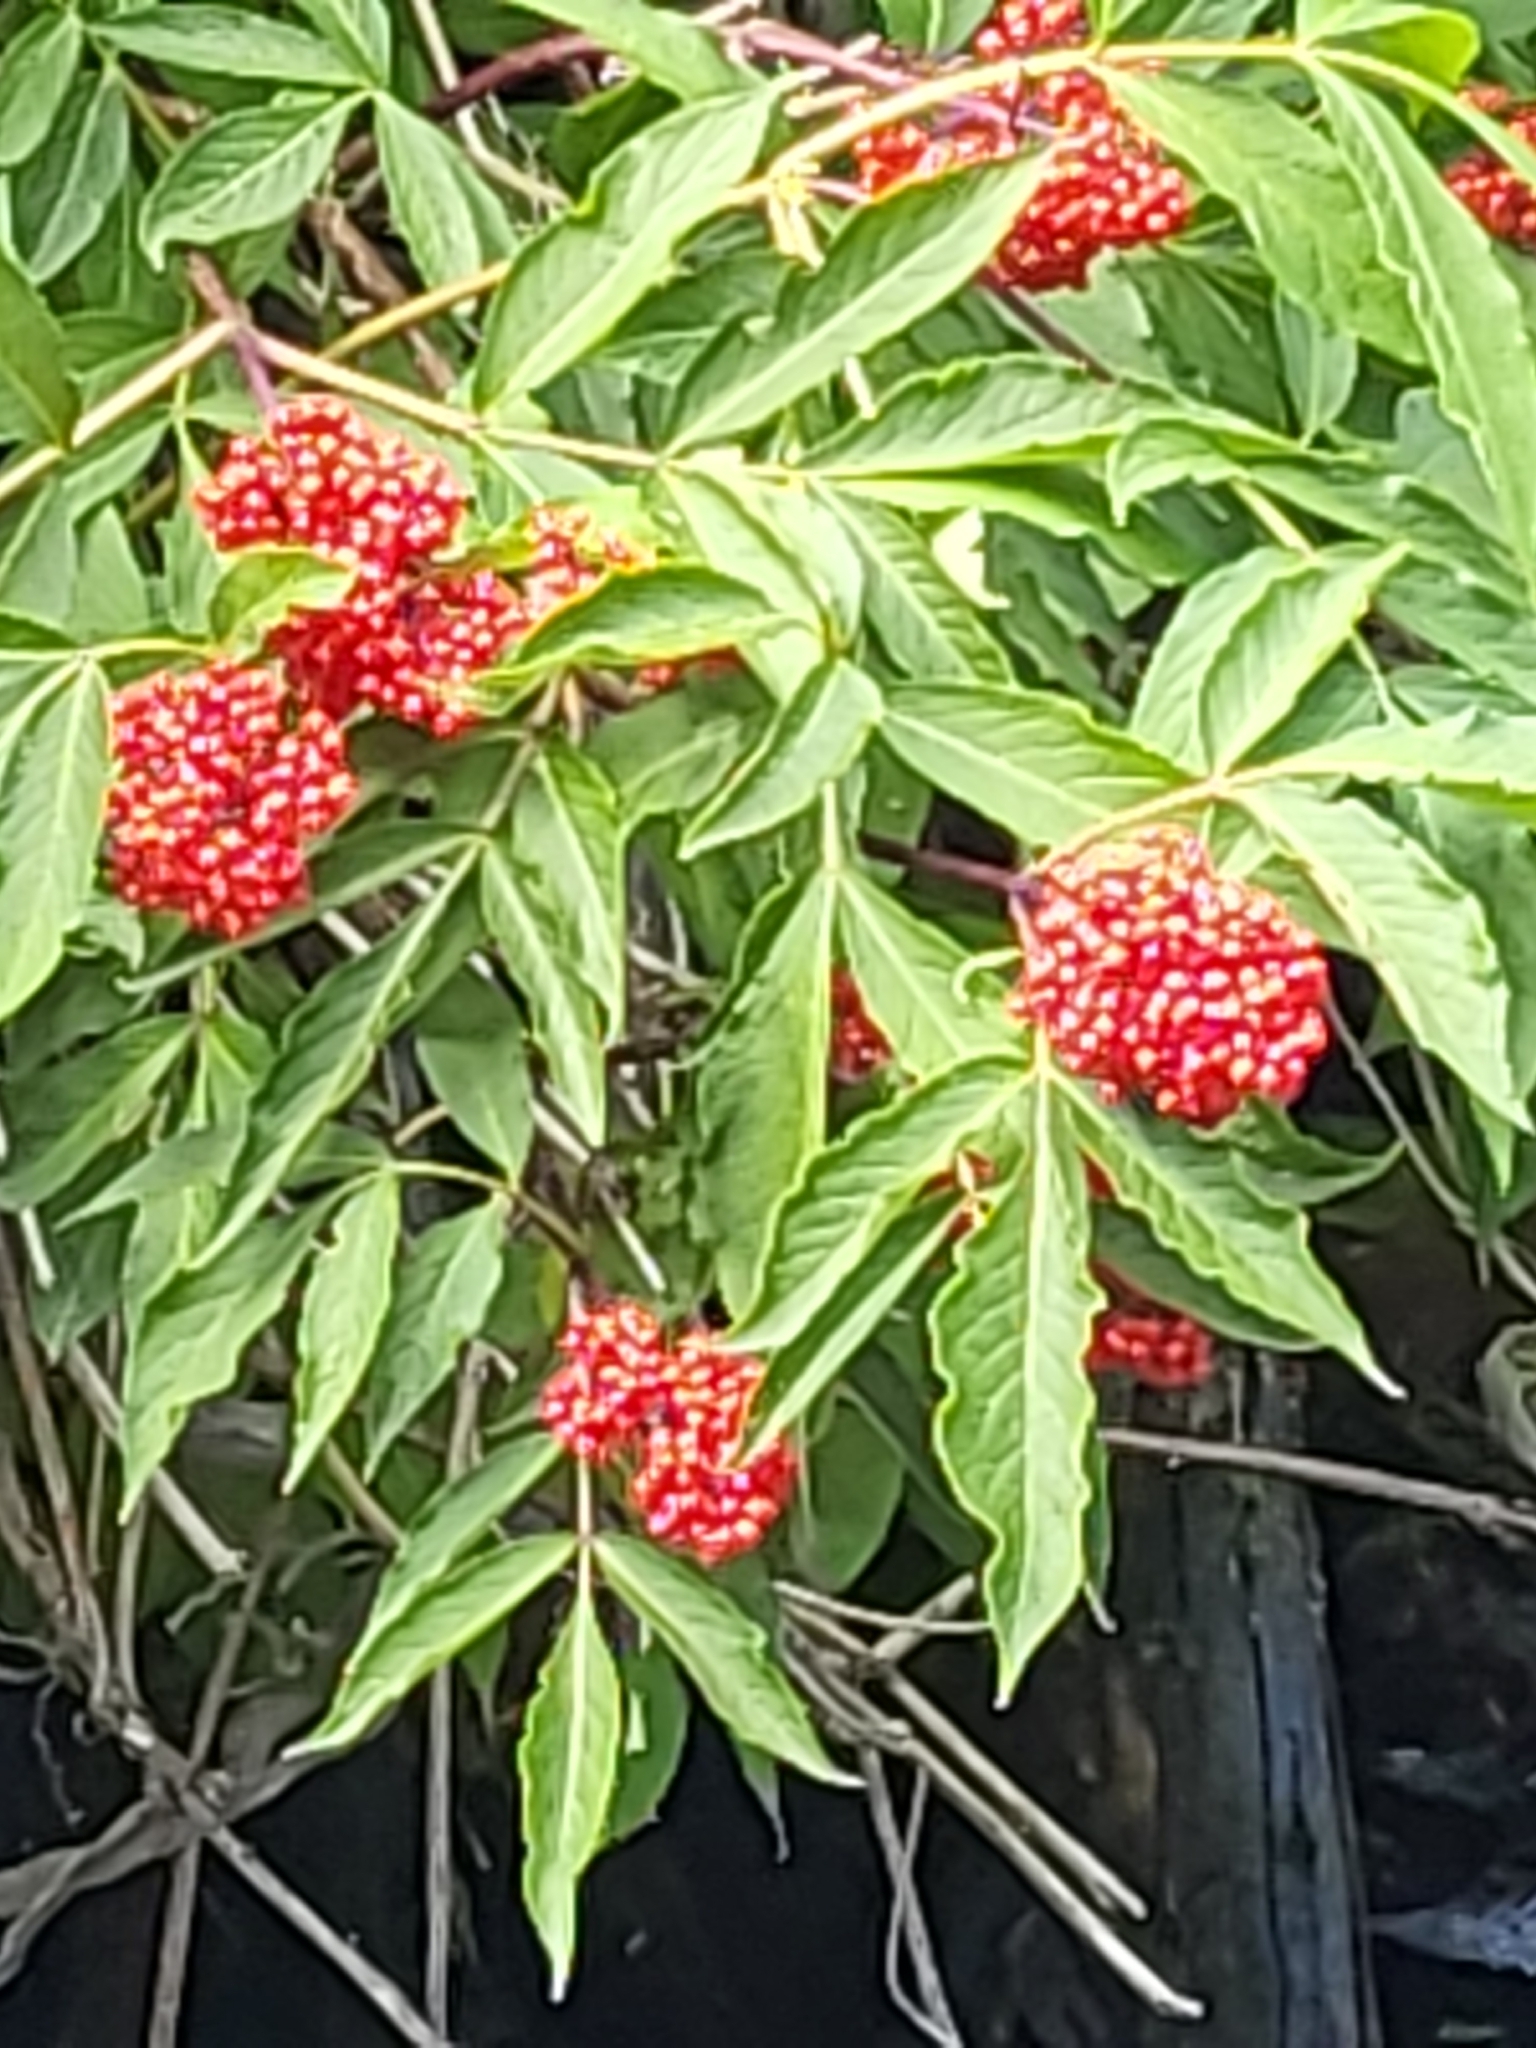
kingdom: Plantae
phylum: Tracheophyta
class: Magnoliopsida
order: Dipsacales
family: Viburnaceae
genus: Sambucus
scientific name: Sambucus racemosa
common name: Red-berried elder
